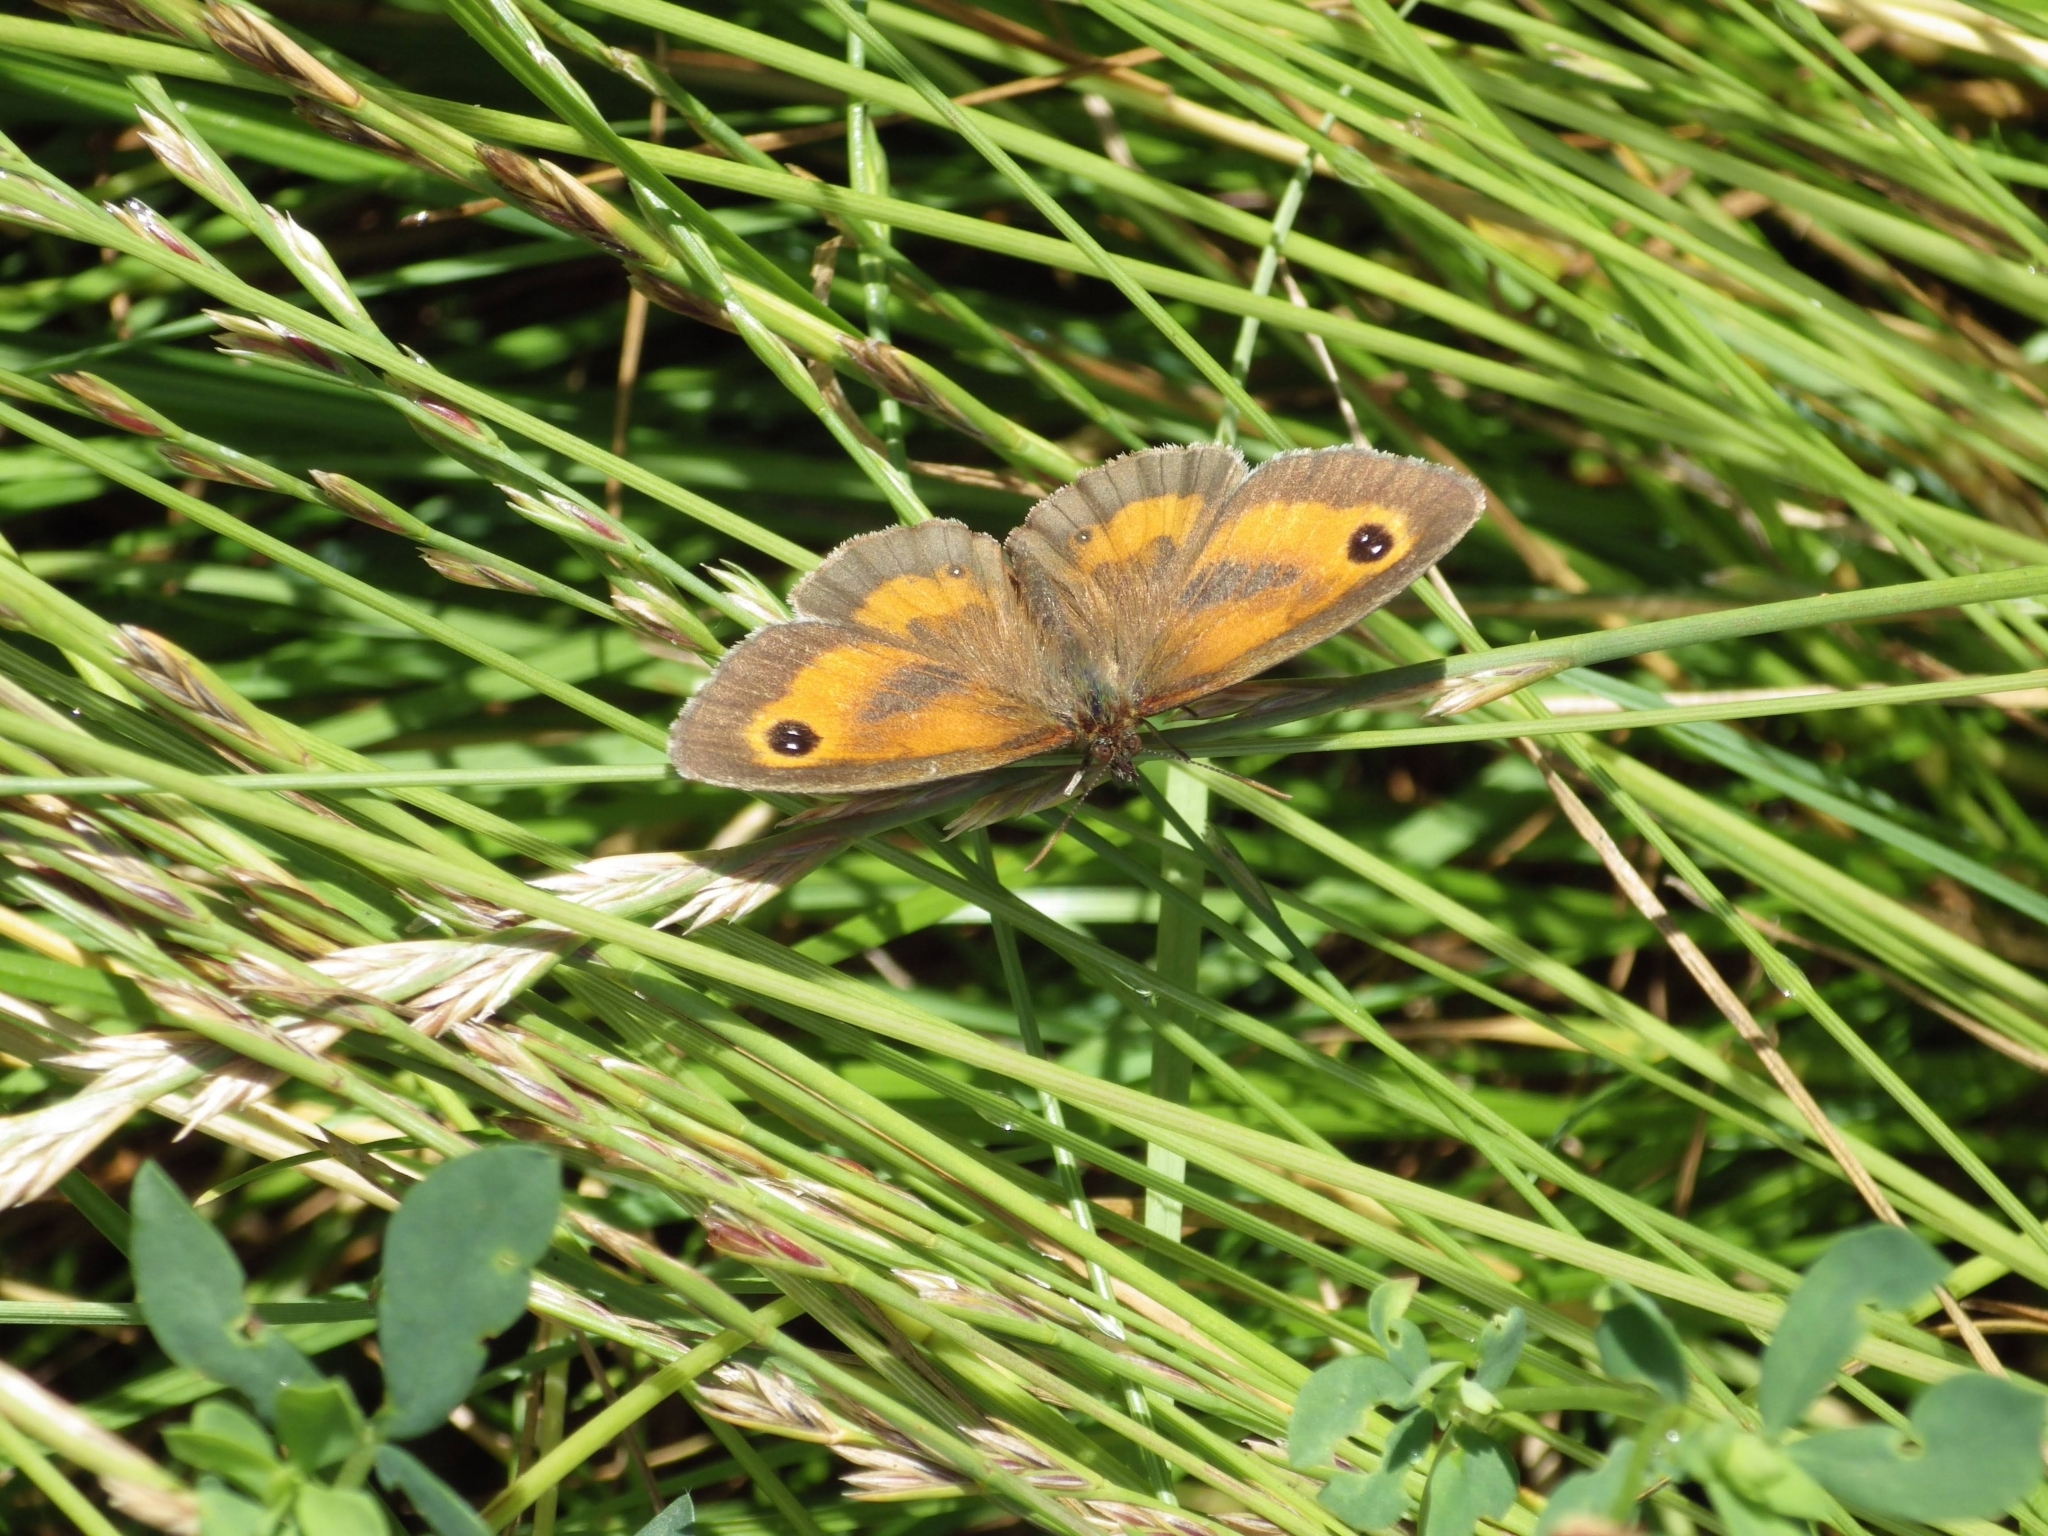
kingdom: Animalia
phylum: Arthropoda
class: Insecta
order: Lepidoptera
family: Nymphalidae
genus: Pyronia
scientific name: Pyronia tithonus
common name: Gatekeeper
